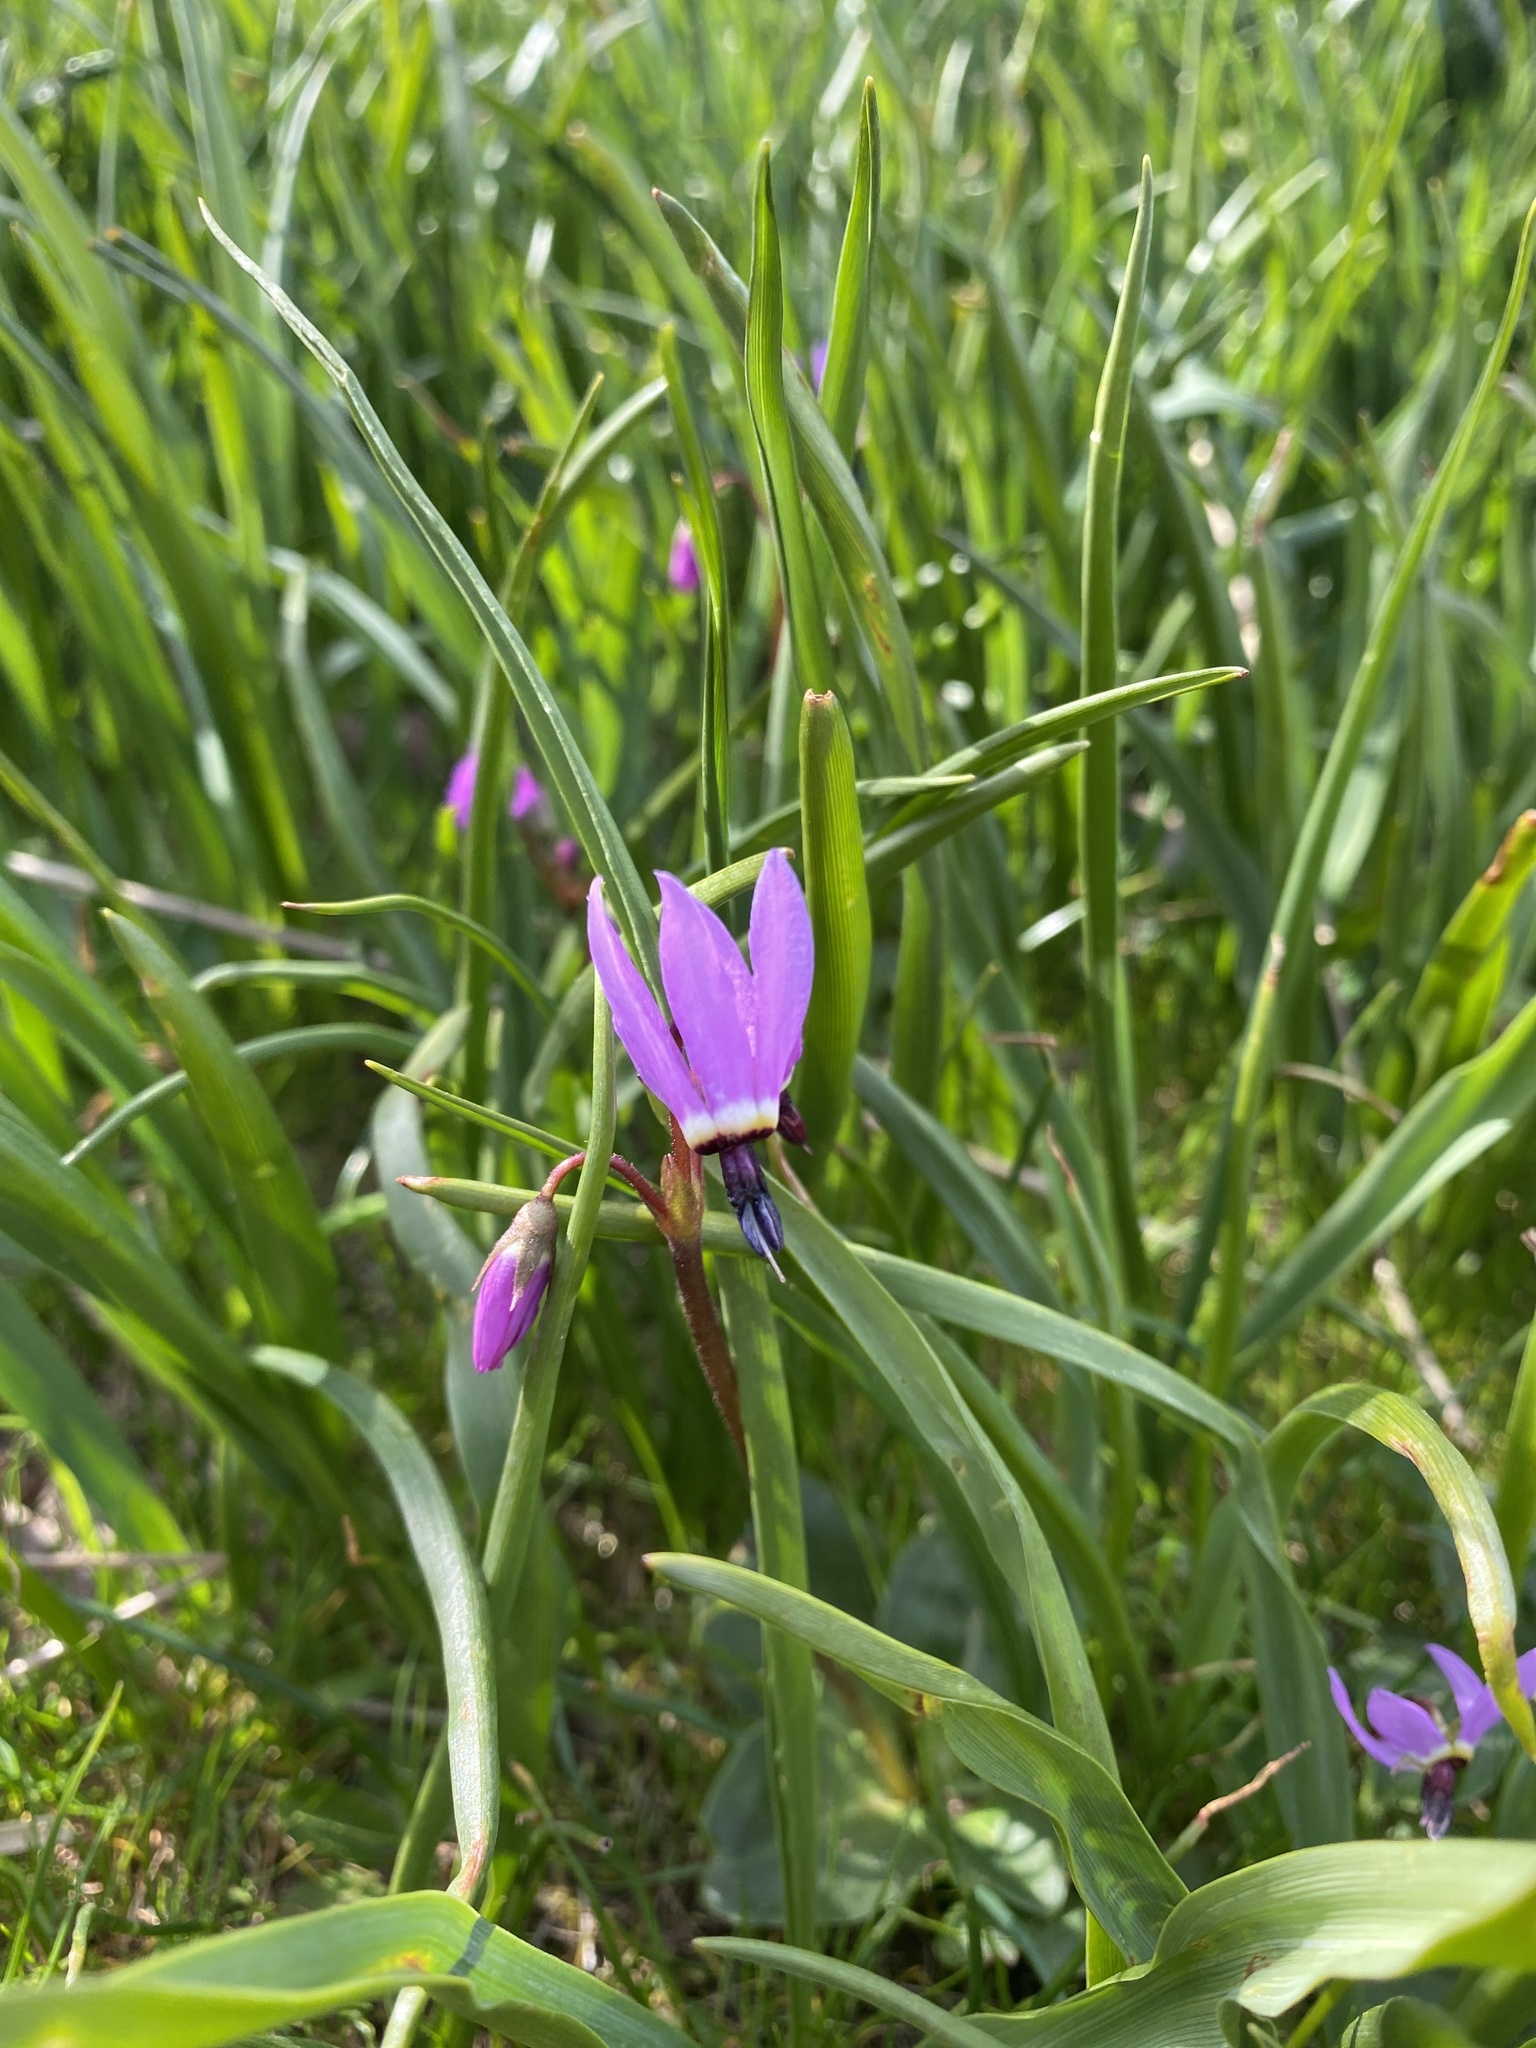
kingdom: Plantae
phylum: Tracheophyta
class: Magnoliopsida
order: Ericales
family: Primulaceae
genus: Dodecatheon
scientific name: Dodecatheon hendersonii
